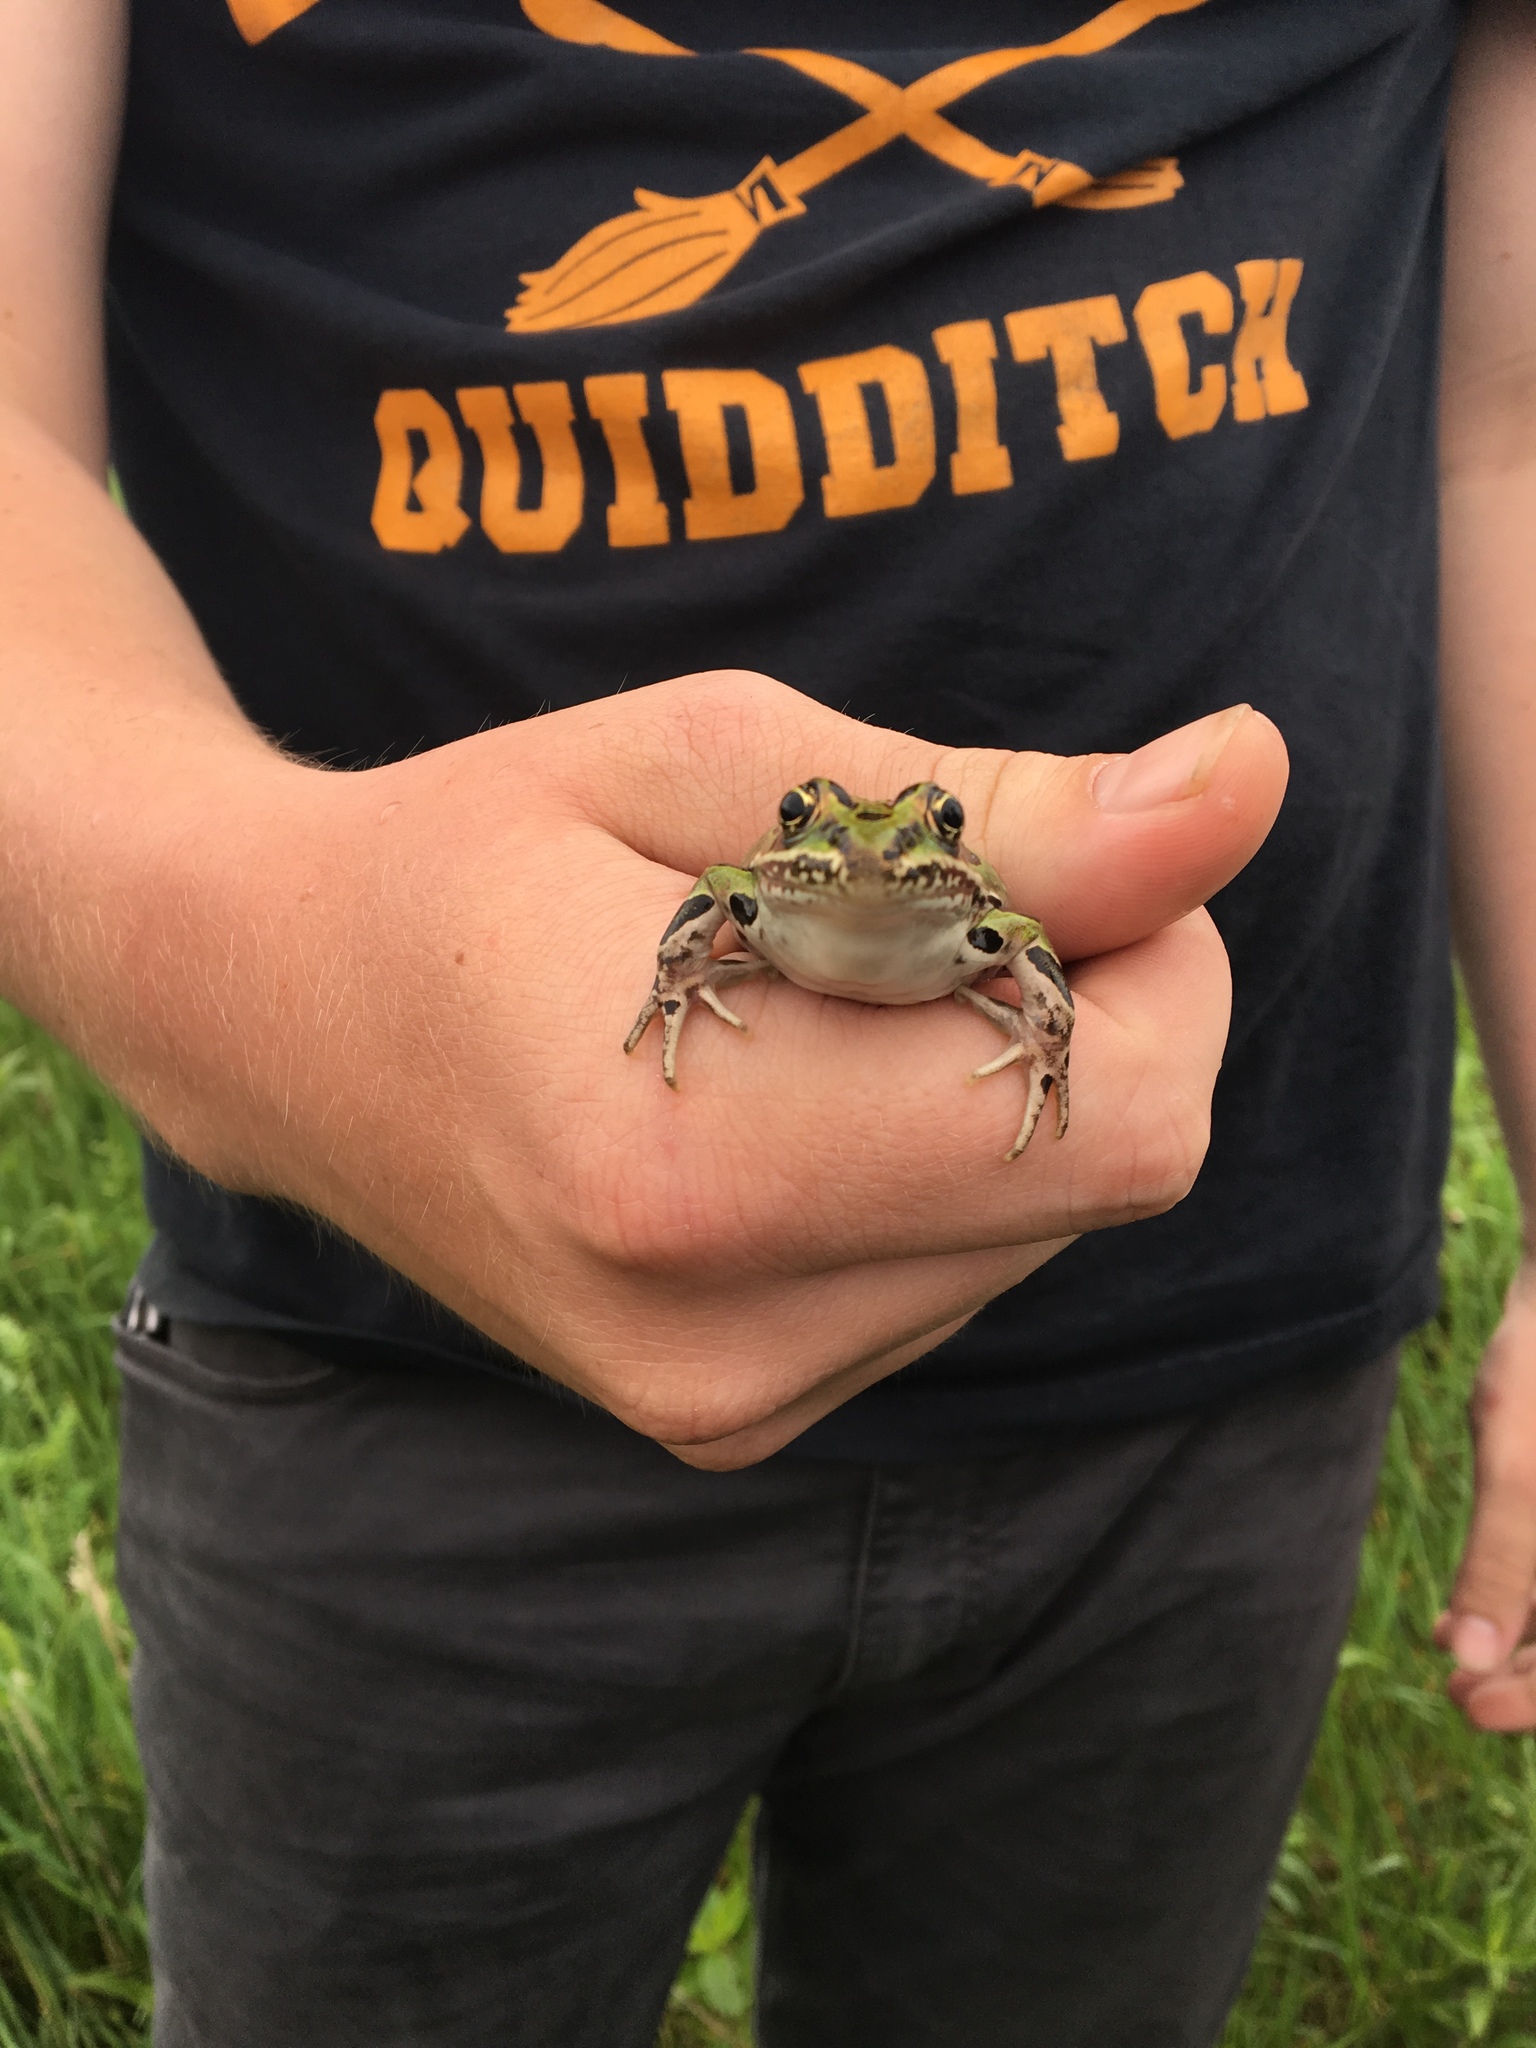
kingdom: Animalia
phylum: Chordata
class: Amphibia
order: Anura
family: Ranidae
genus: Lithobates
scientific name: Lithobates pipiens
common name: Northern leopard frog
